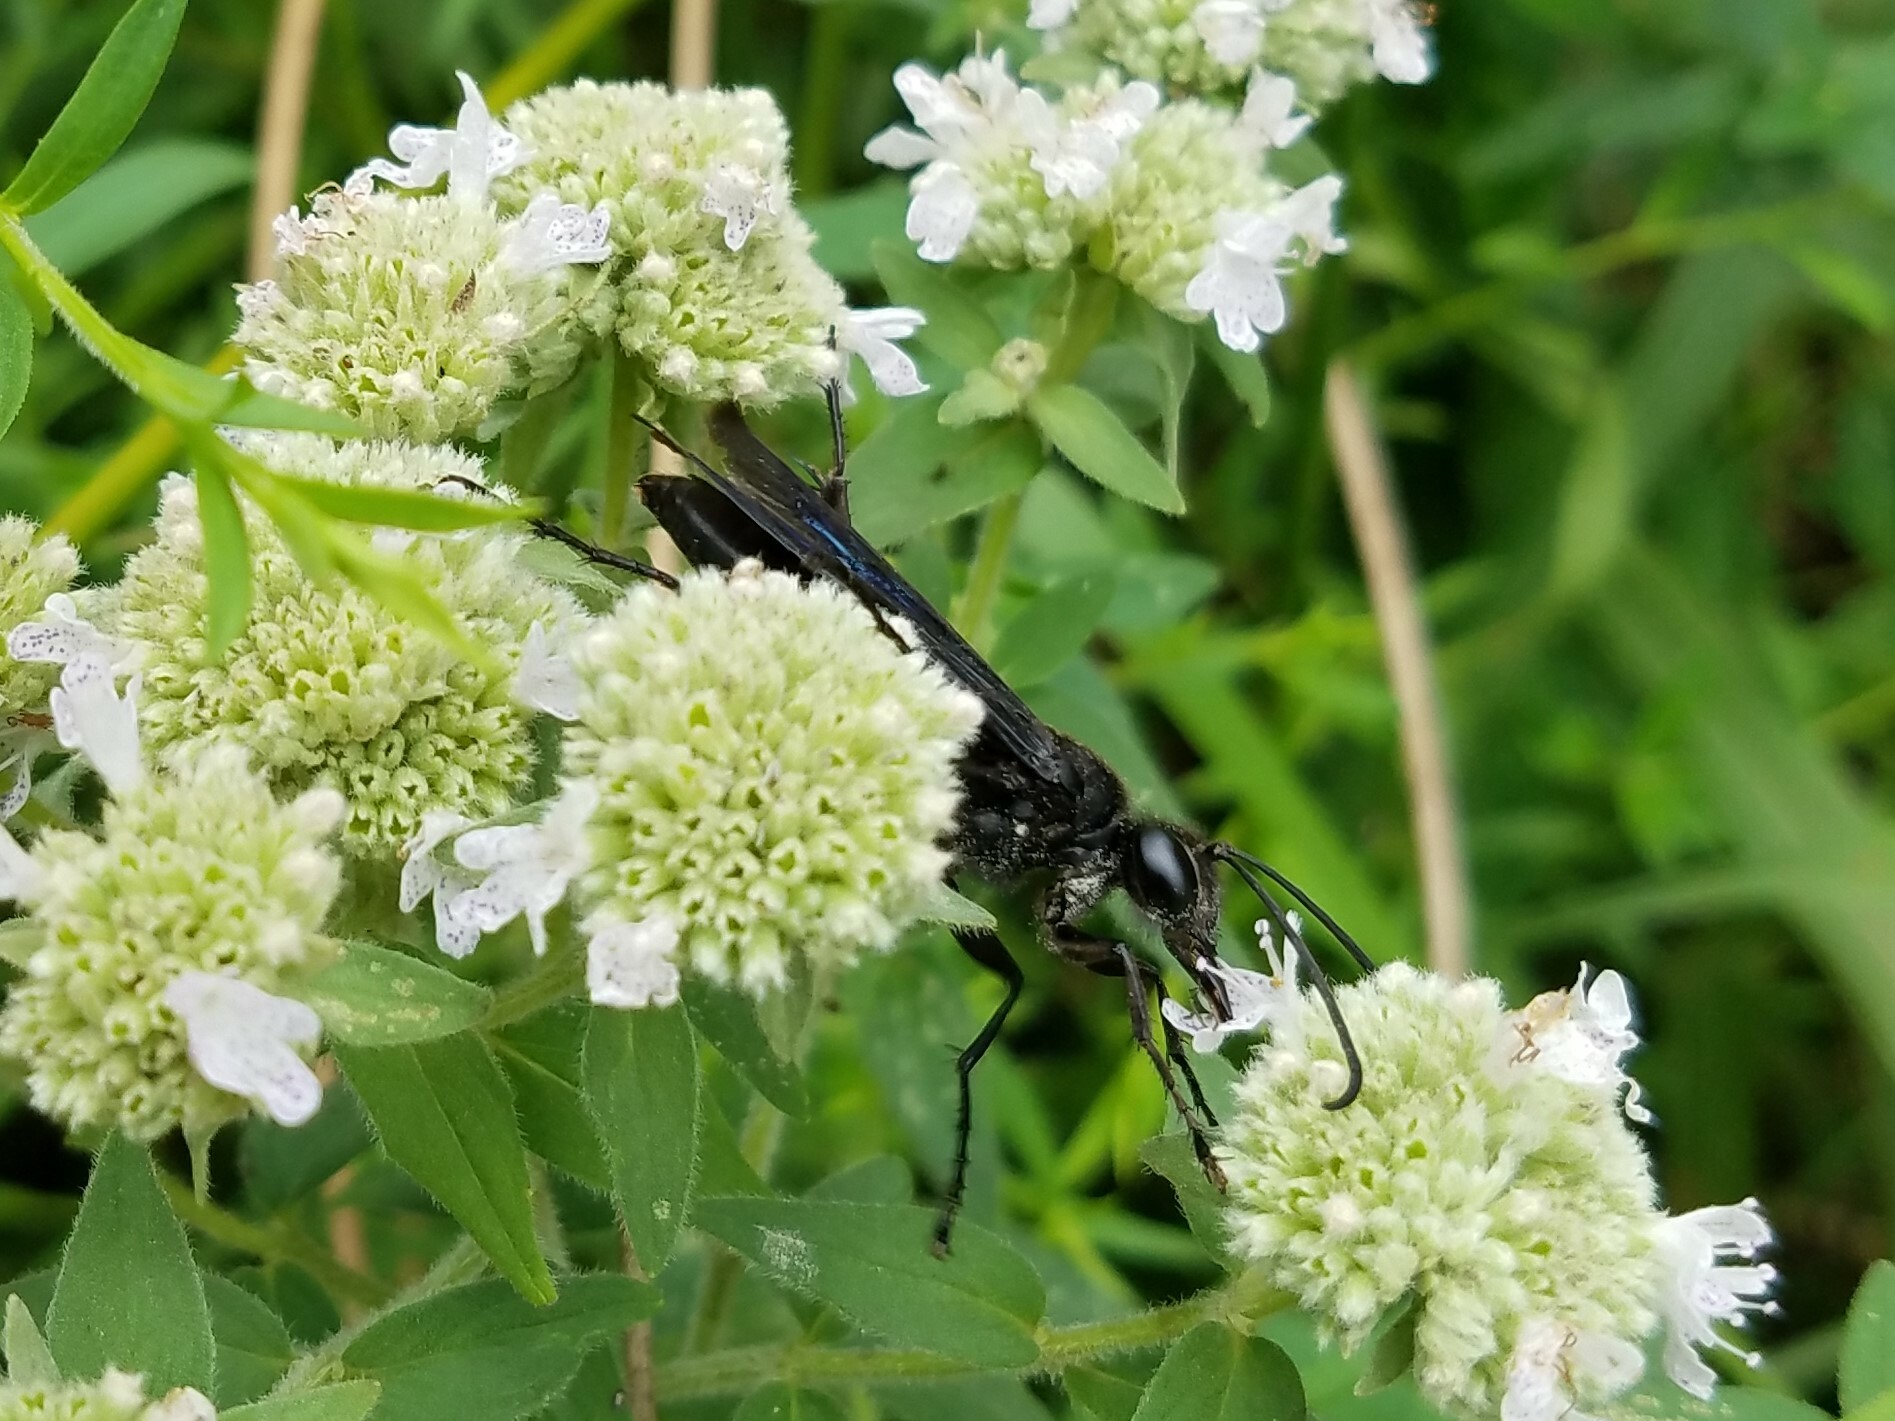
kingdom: Animalia
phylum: Arthropoda
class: Insecta
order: Hymenoptera
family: Sphecidae
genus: Sphex
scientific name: Sphex pensylvanicus
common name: Great black digger wasp
